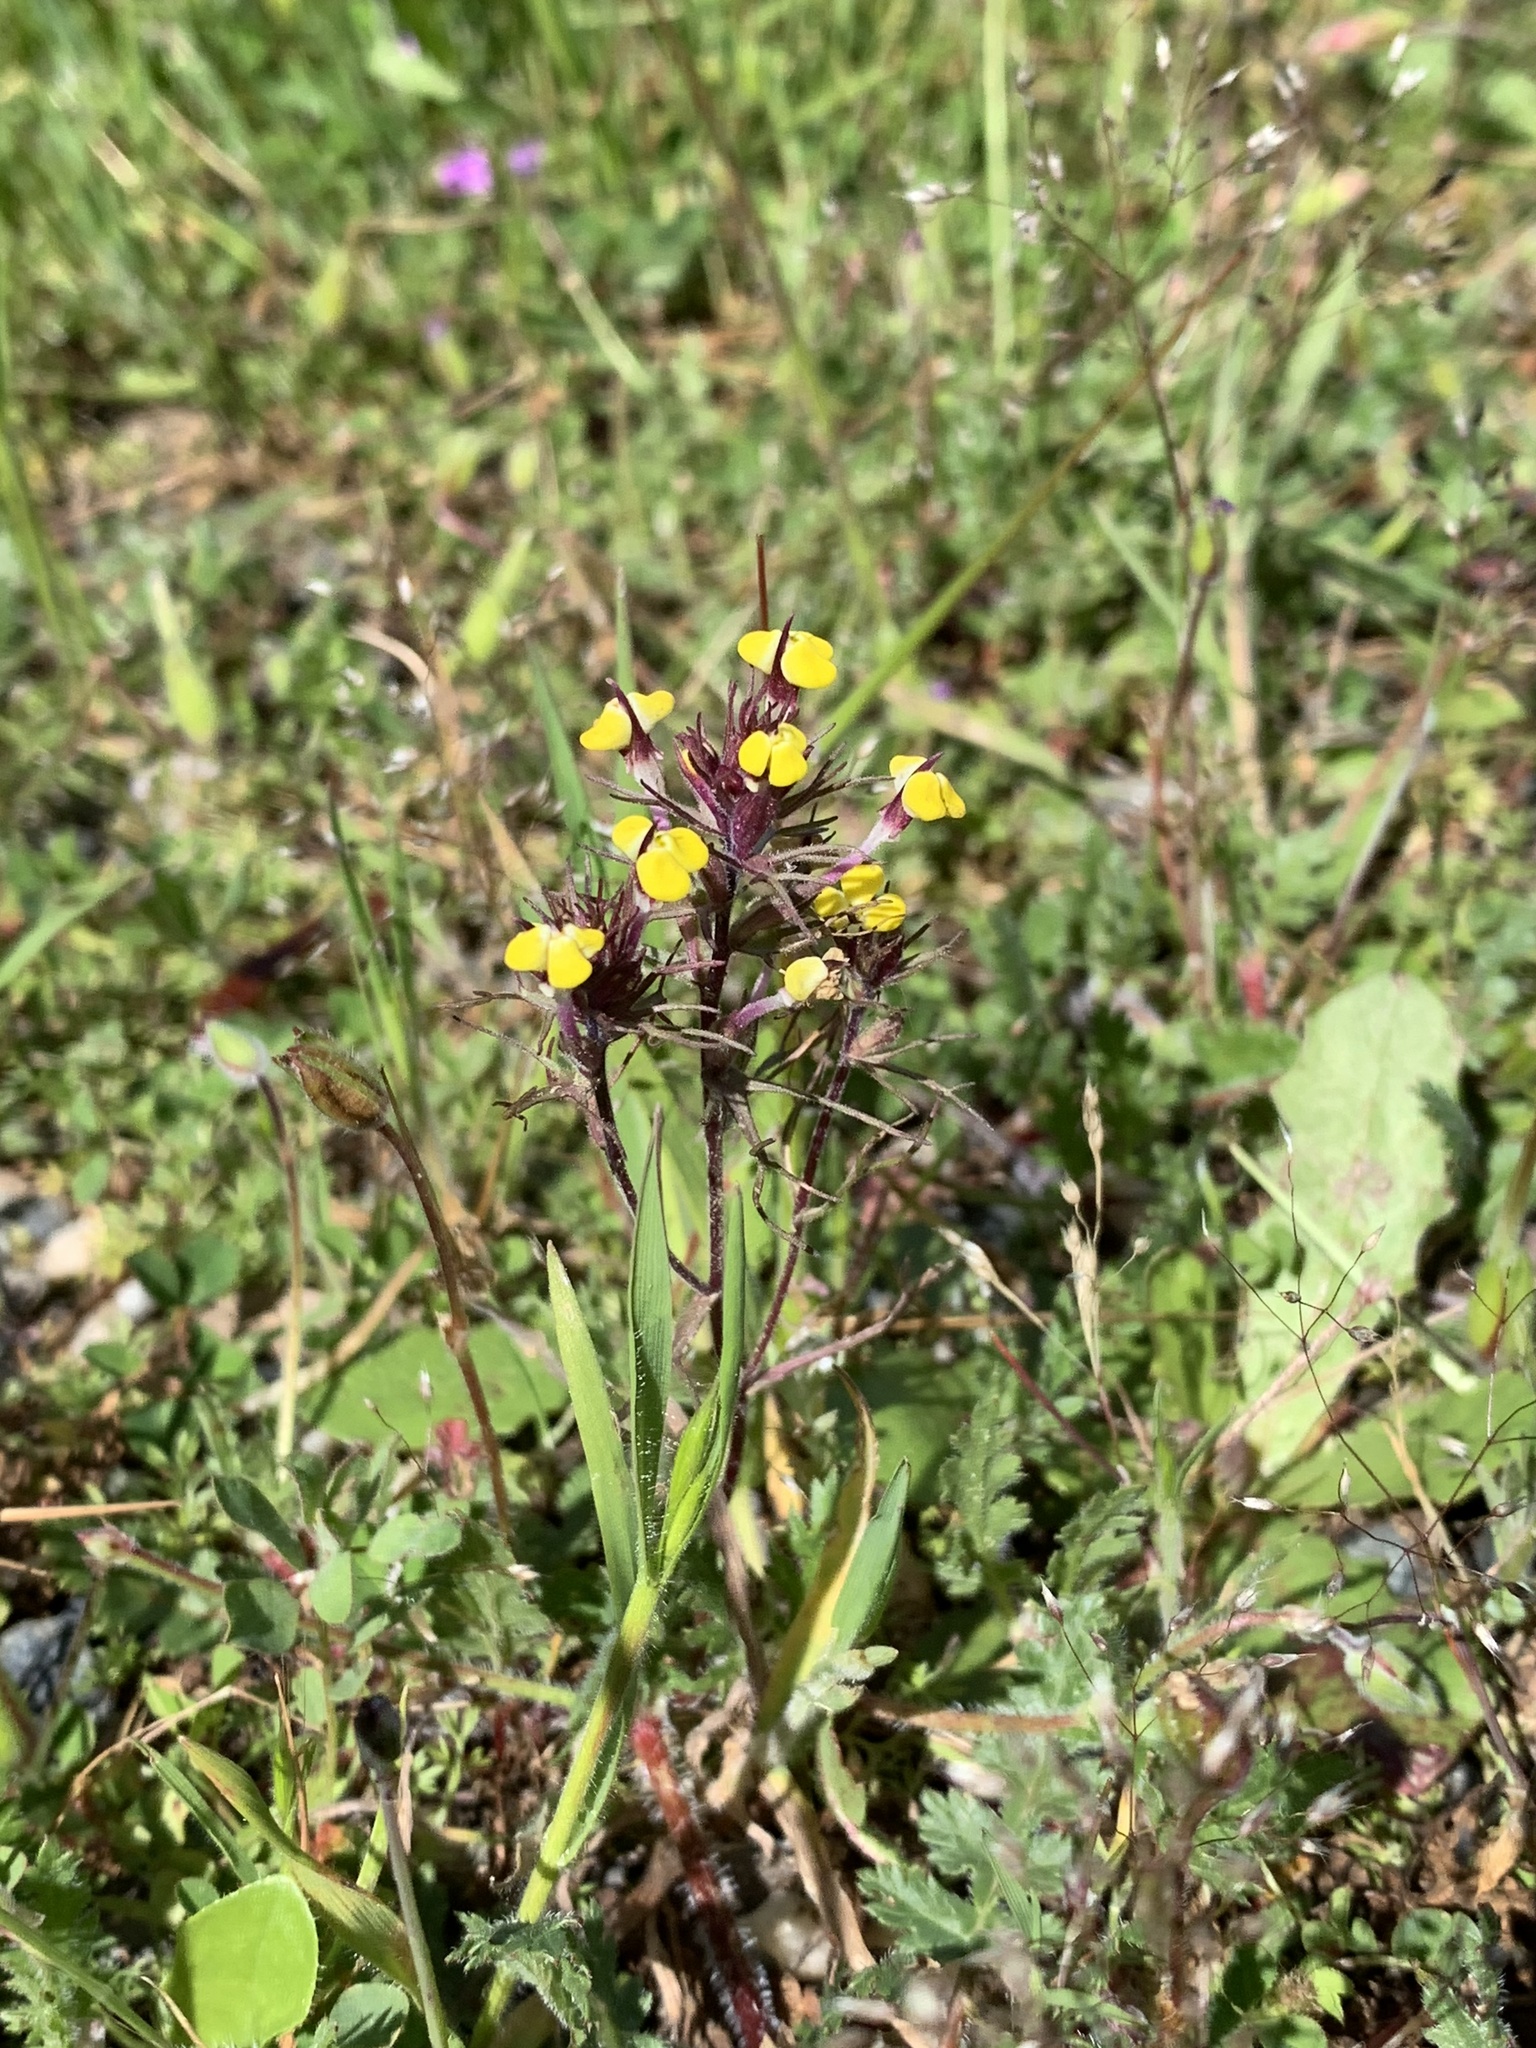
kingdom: Plantae
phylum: Tracheophyta
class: Magnoliopsida
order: Lamiales
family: Orobanchaceae
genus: Triphysaria
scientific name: Triphysaria eriantha
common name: Johnny-tuck
